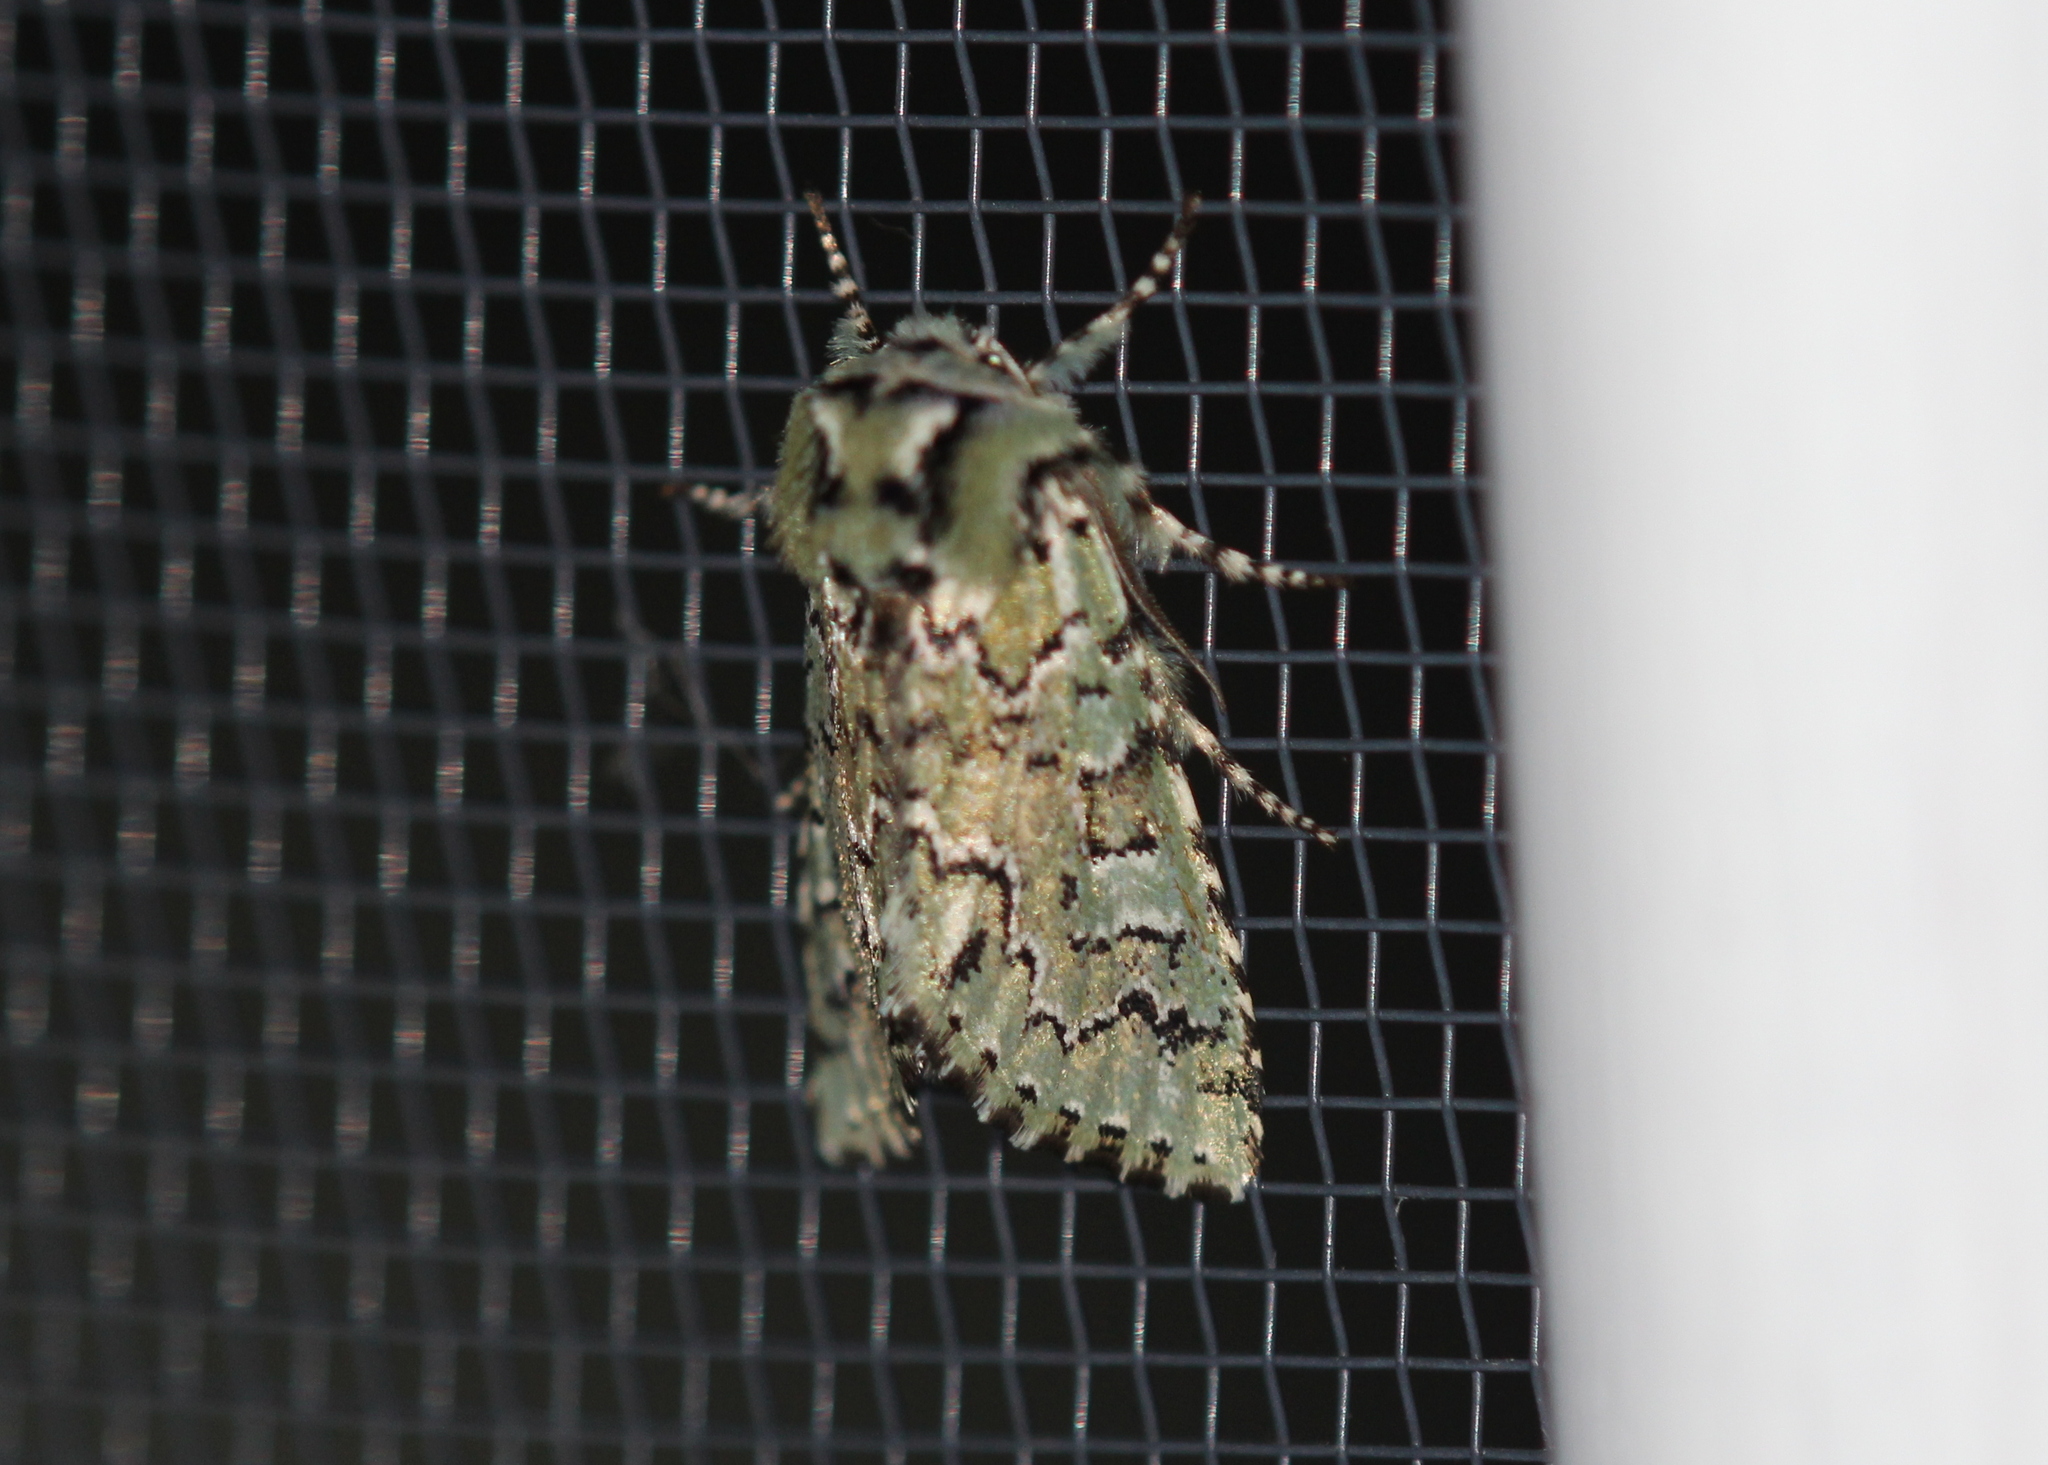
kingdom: Animalia
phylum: Arthropoda
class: Insecta
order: Lepidoptera
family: Noctuidae
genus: Feralia
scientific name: Feralia jocosa
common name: Joker
